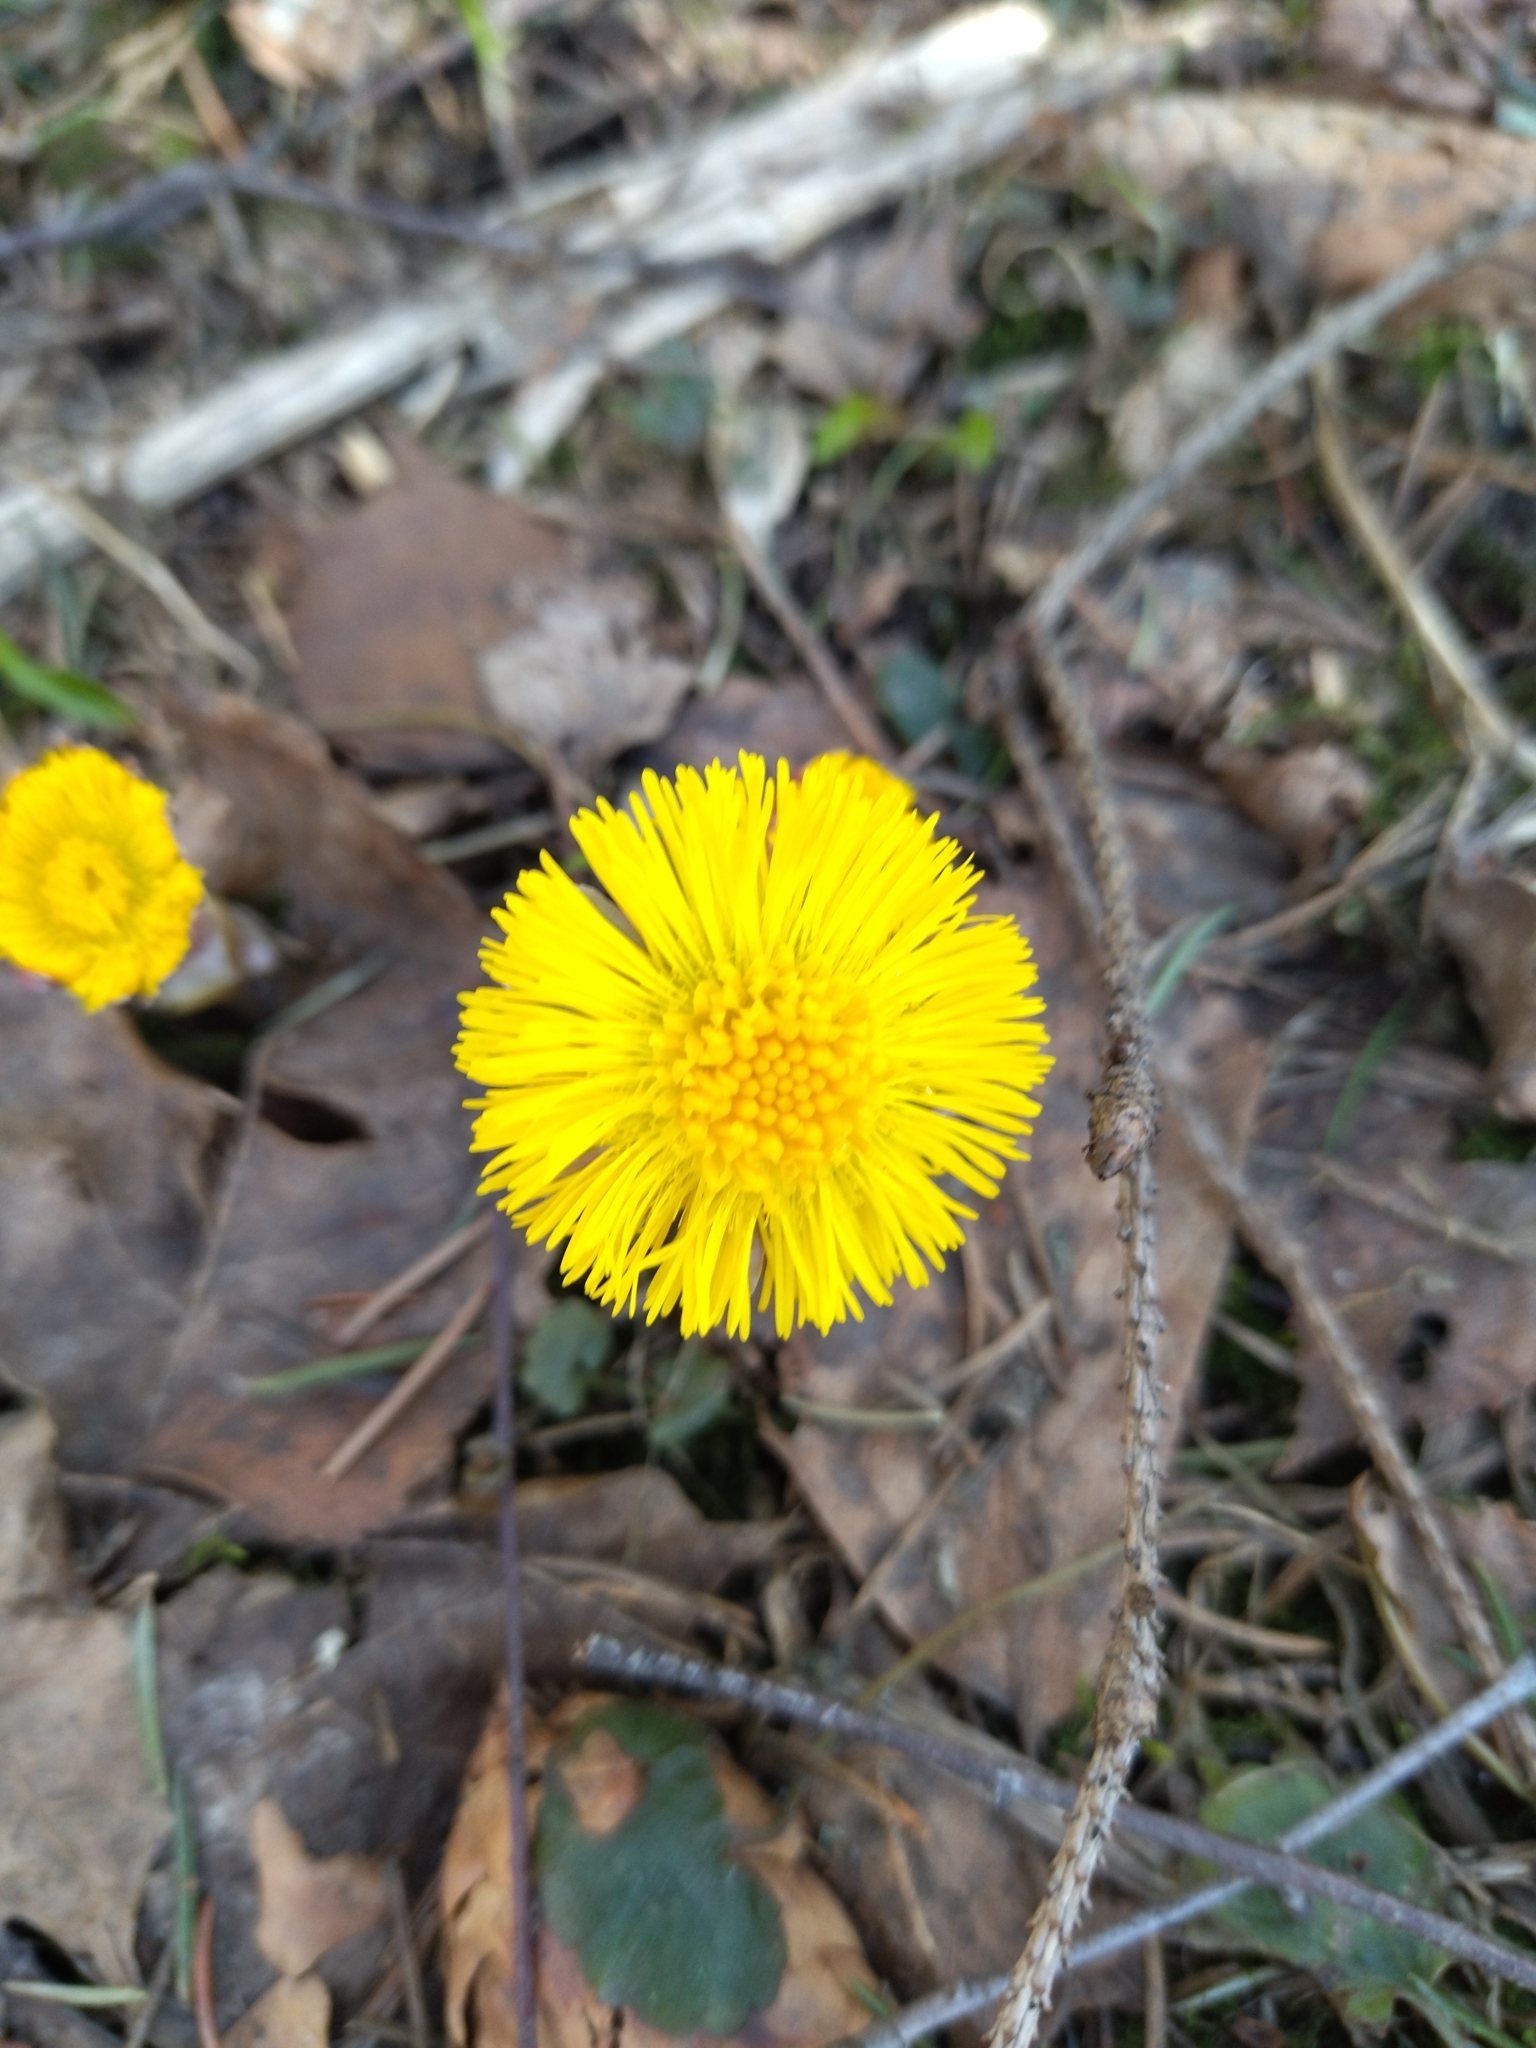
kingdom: Plantae
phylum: Tracheophyta
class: Magnoliopsida
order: Asterales
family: Asteraceae
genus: Tussilago
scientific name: Tussilago farfara
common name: Coltsfoot
